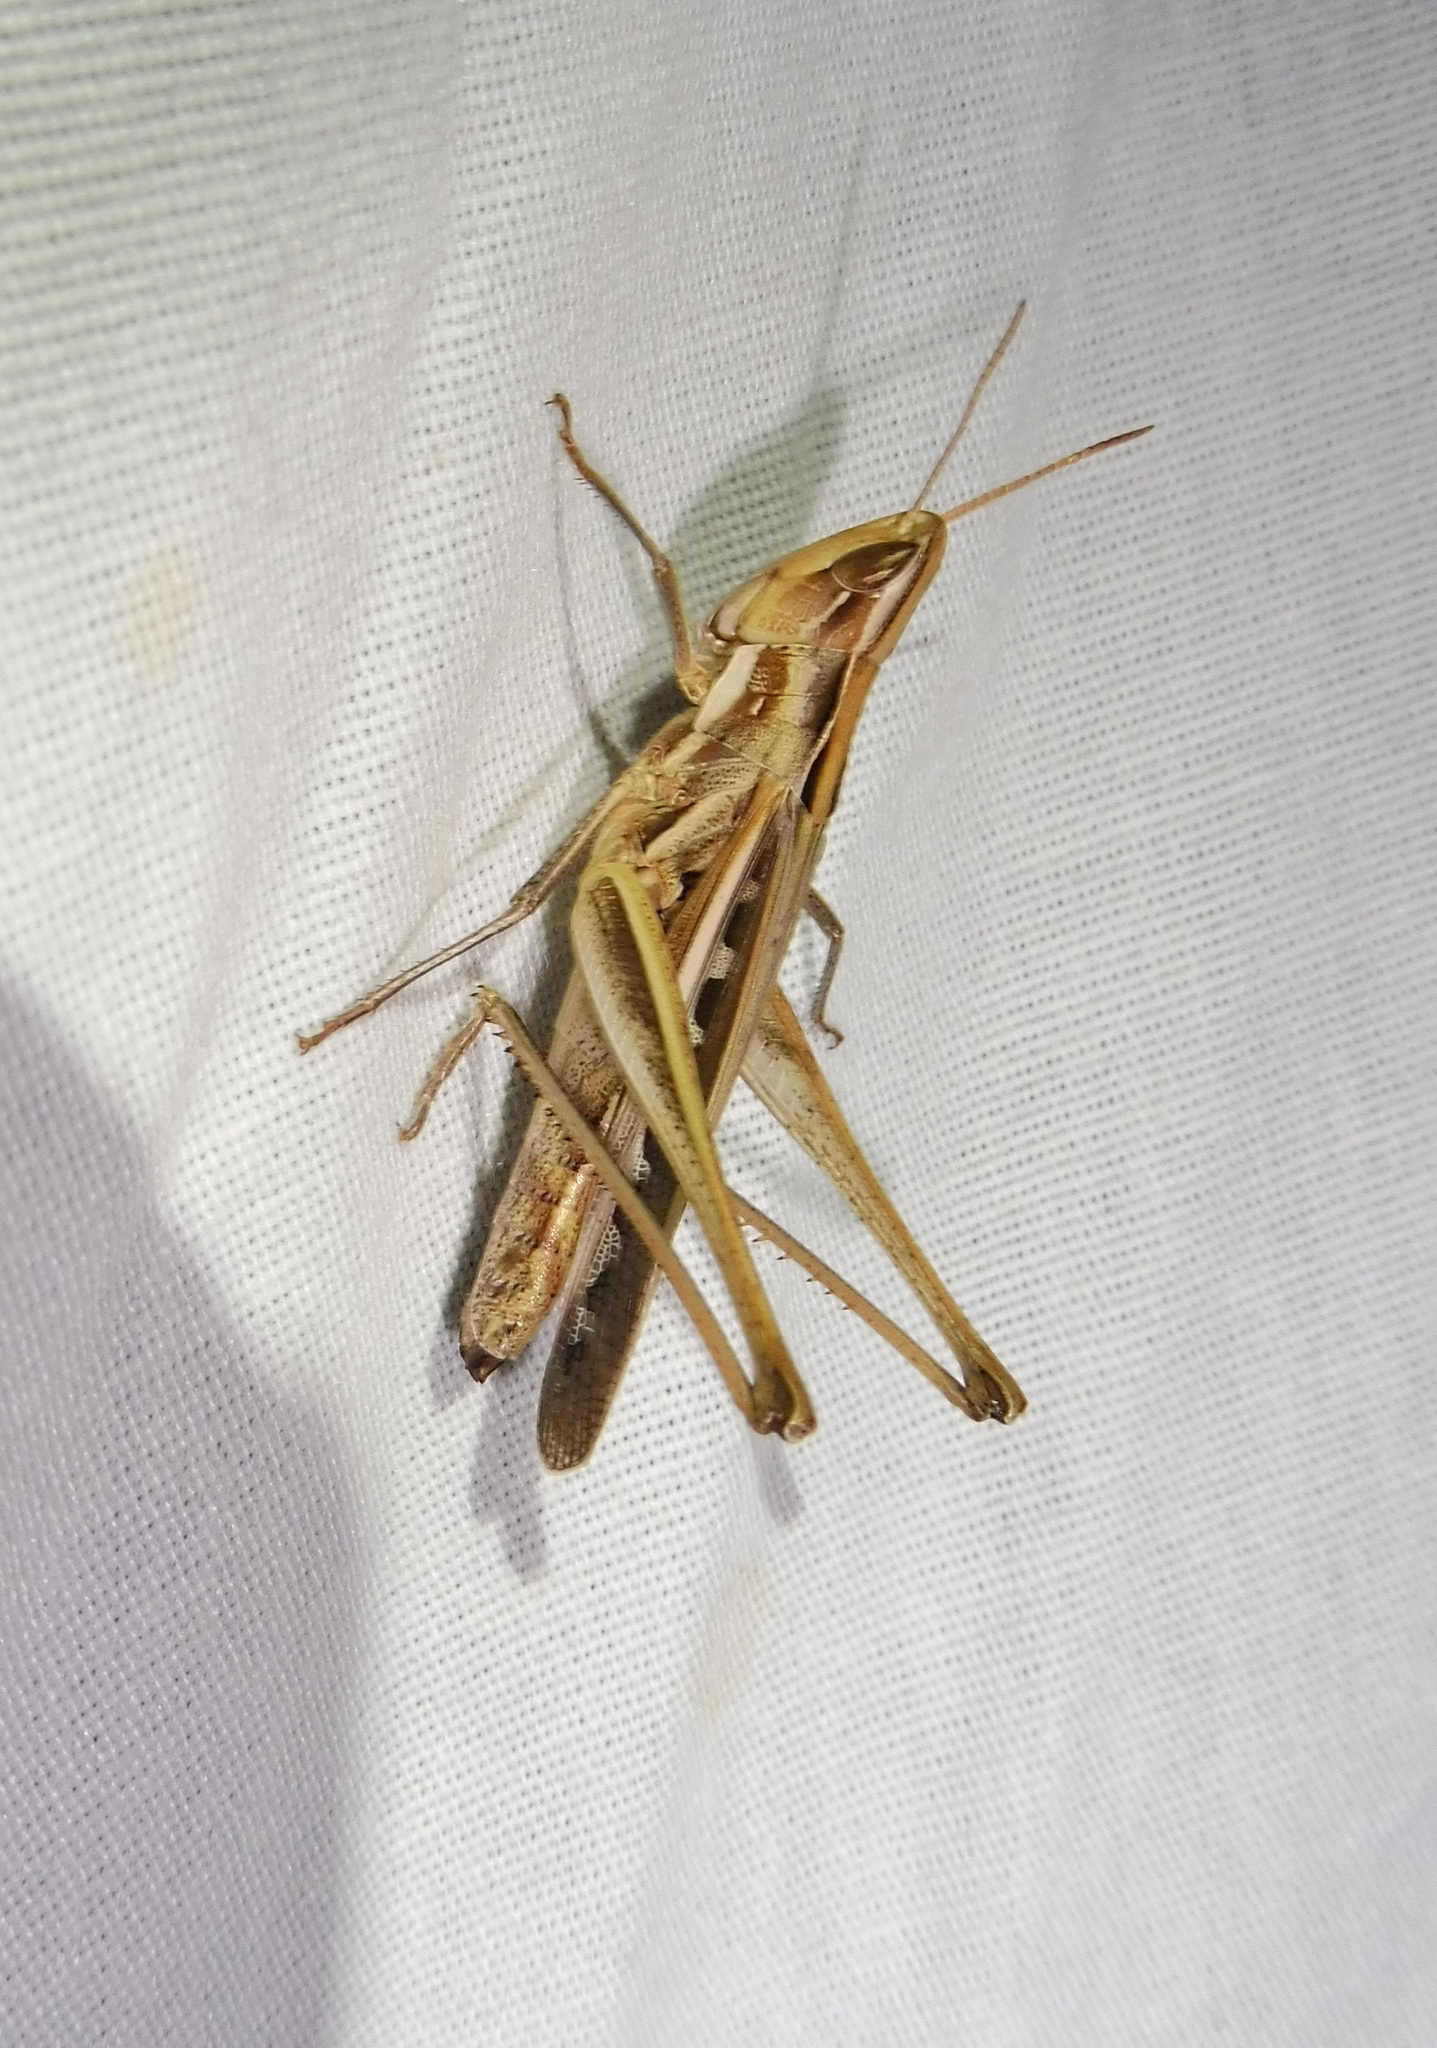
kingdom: Animalia
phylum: Arthropoda
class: Insecta
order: Orthoptera
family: Acrididae
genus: Syrbula
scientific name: Syrbula montezuma
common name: Montezuma's grasshopper
